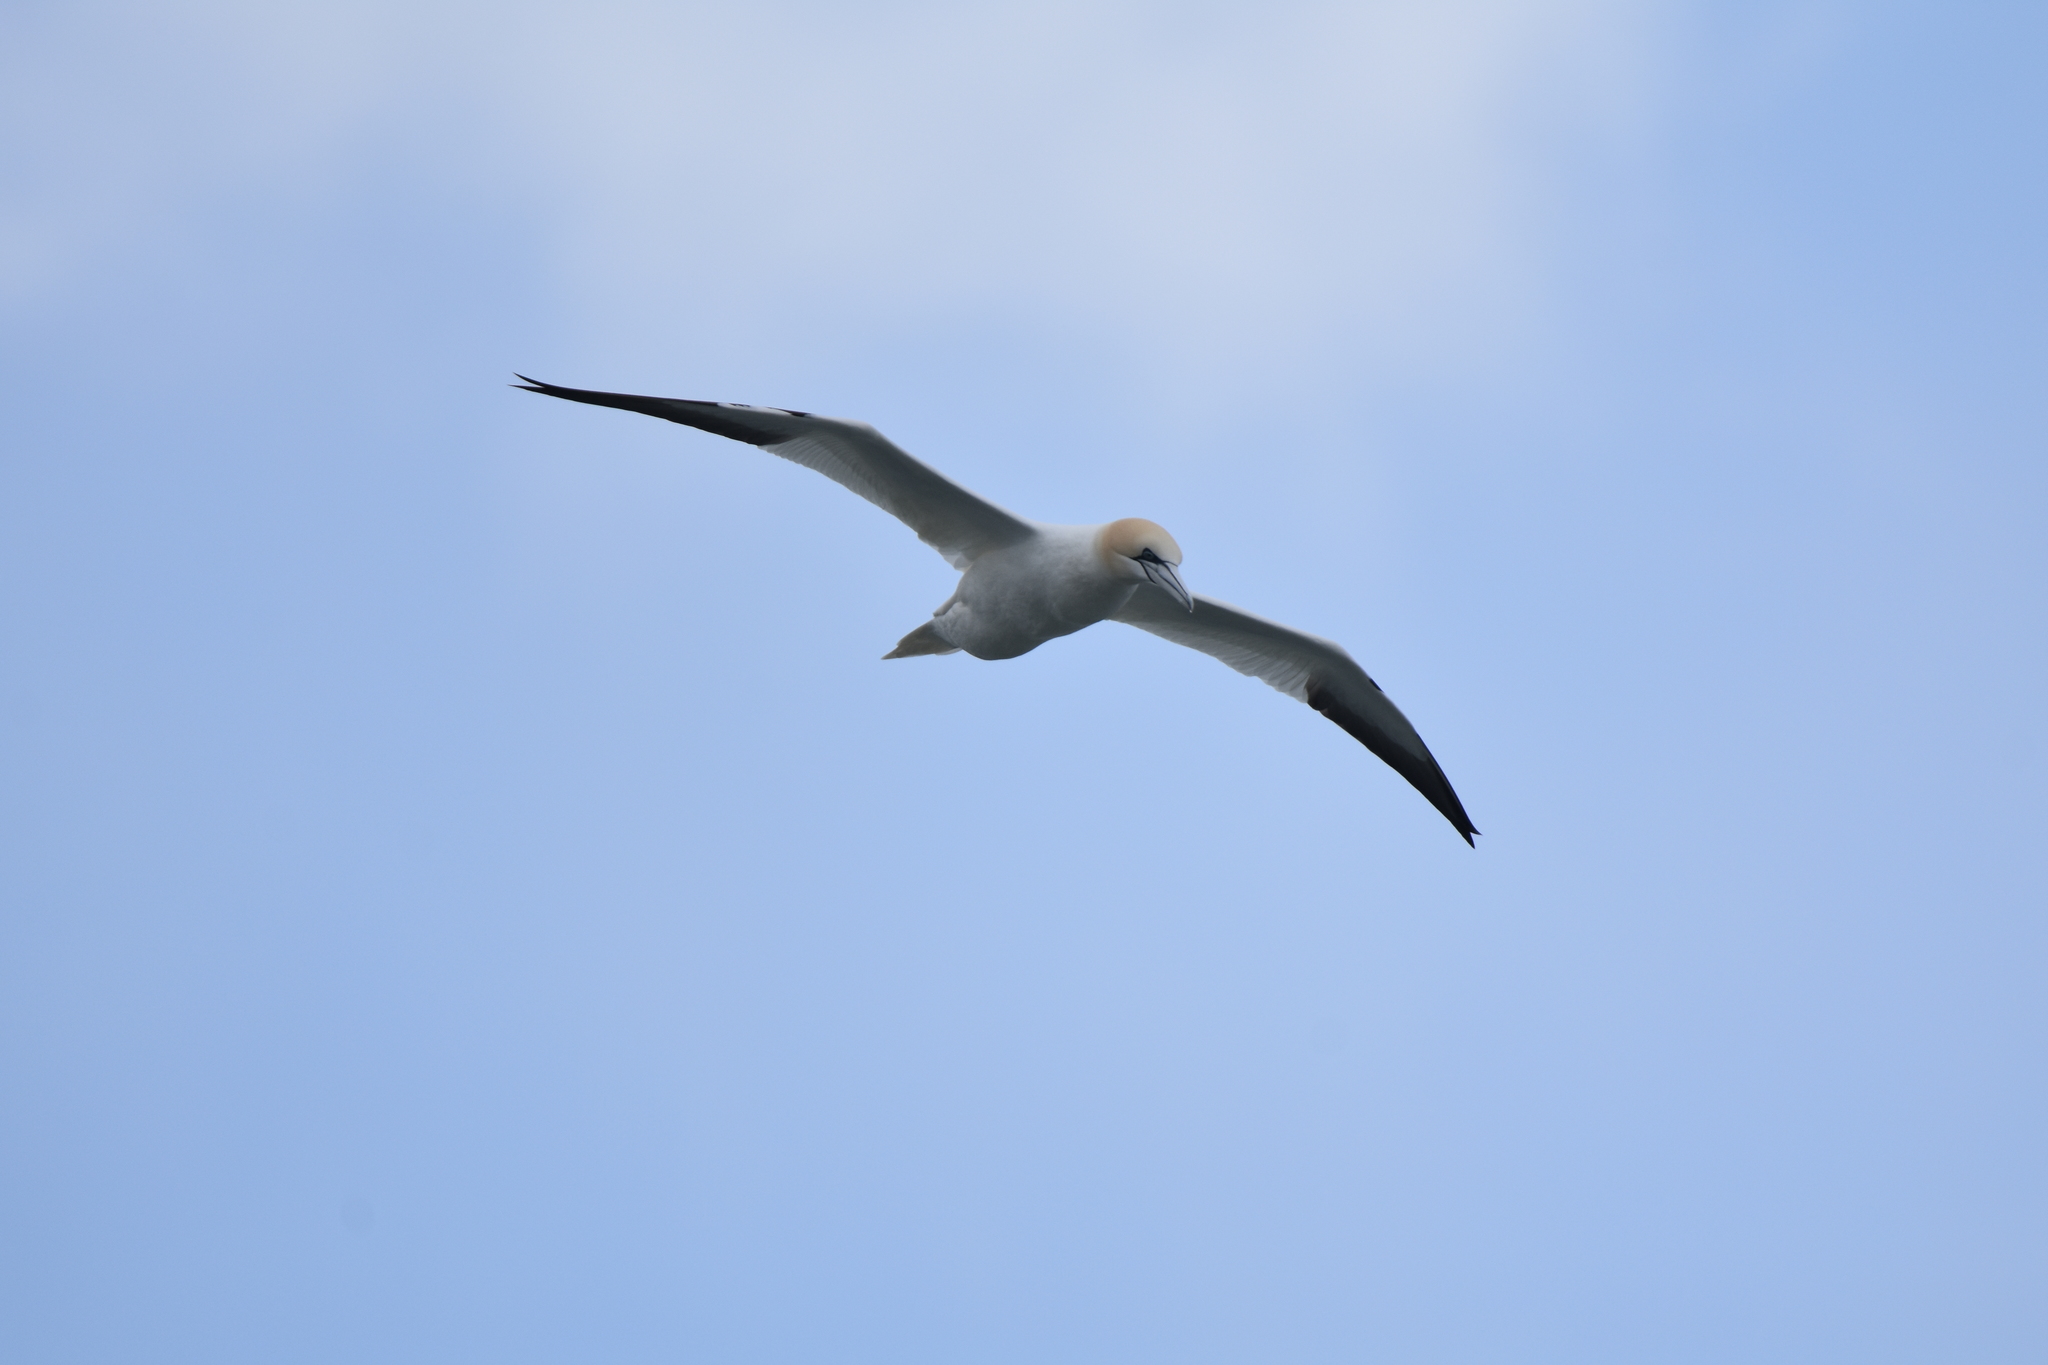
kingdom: Animalia
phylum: Chordata
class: Aves
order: Suliformes
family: Sulidae
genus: Morus
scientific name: Morus bassanus
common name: Northern gannet
